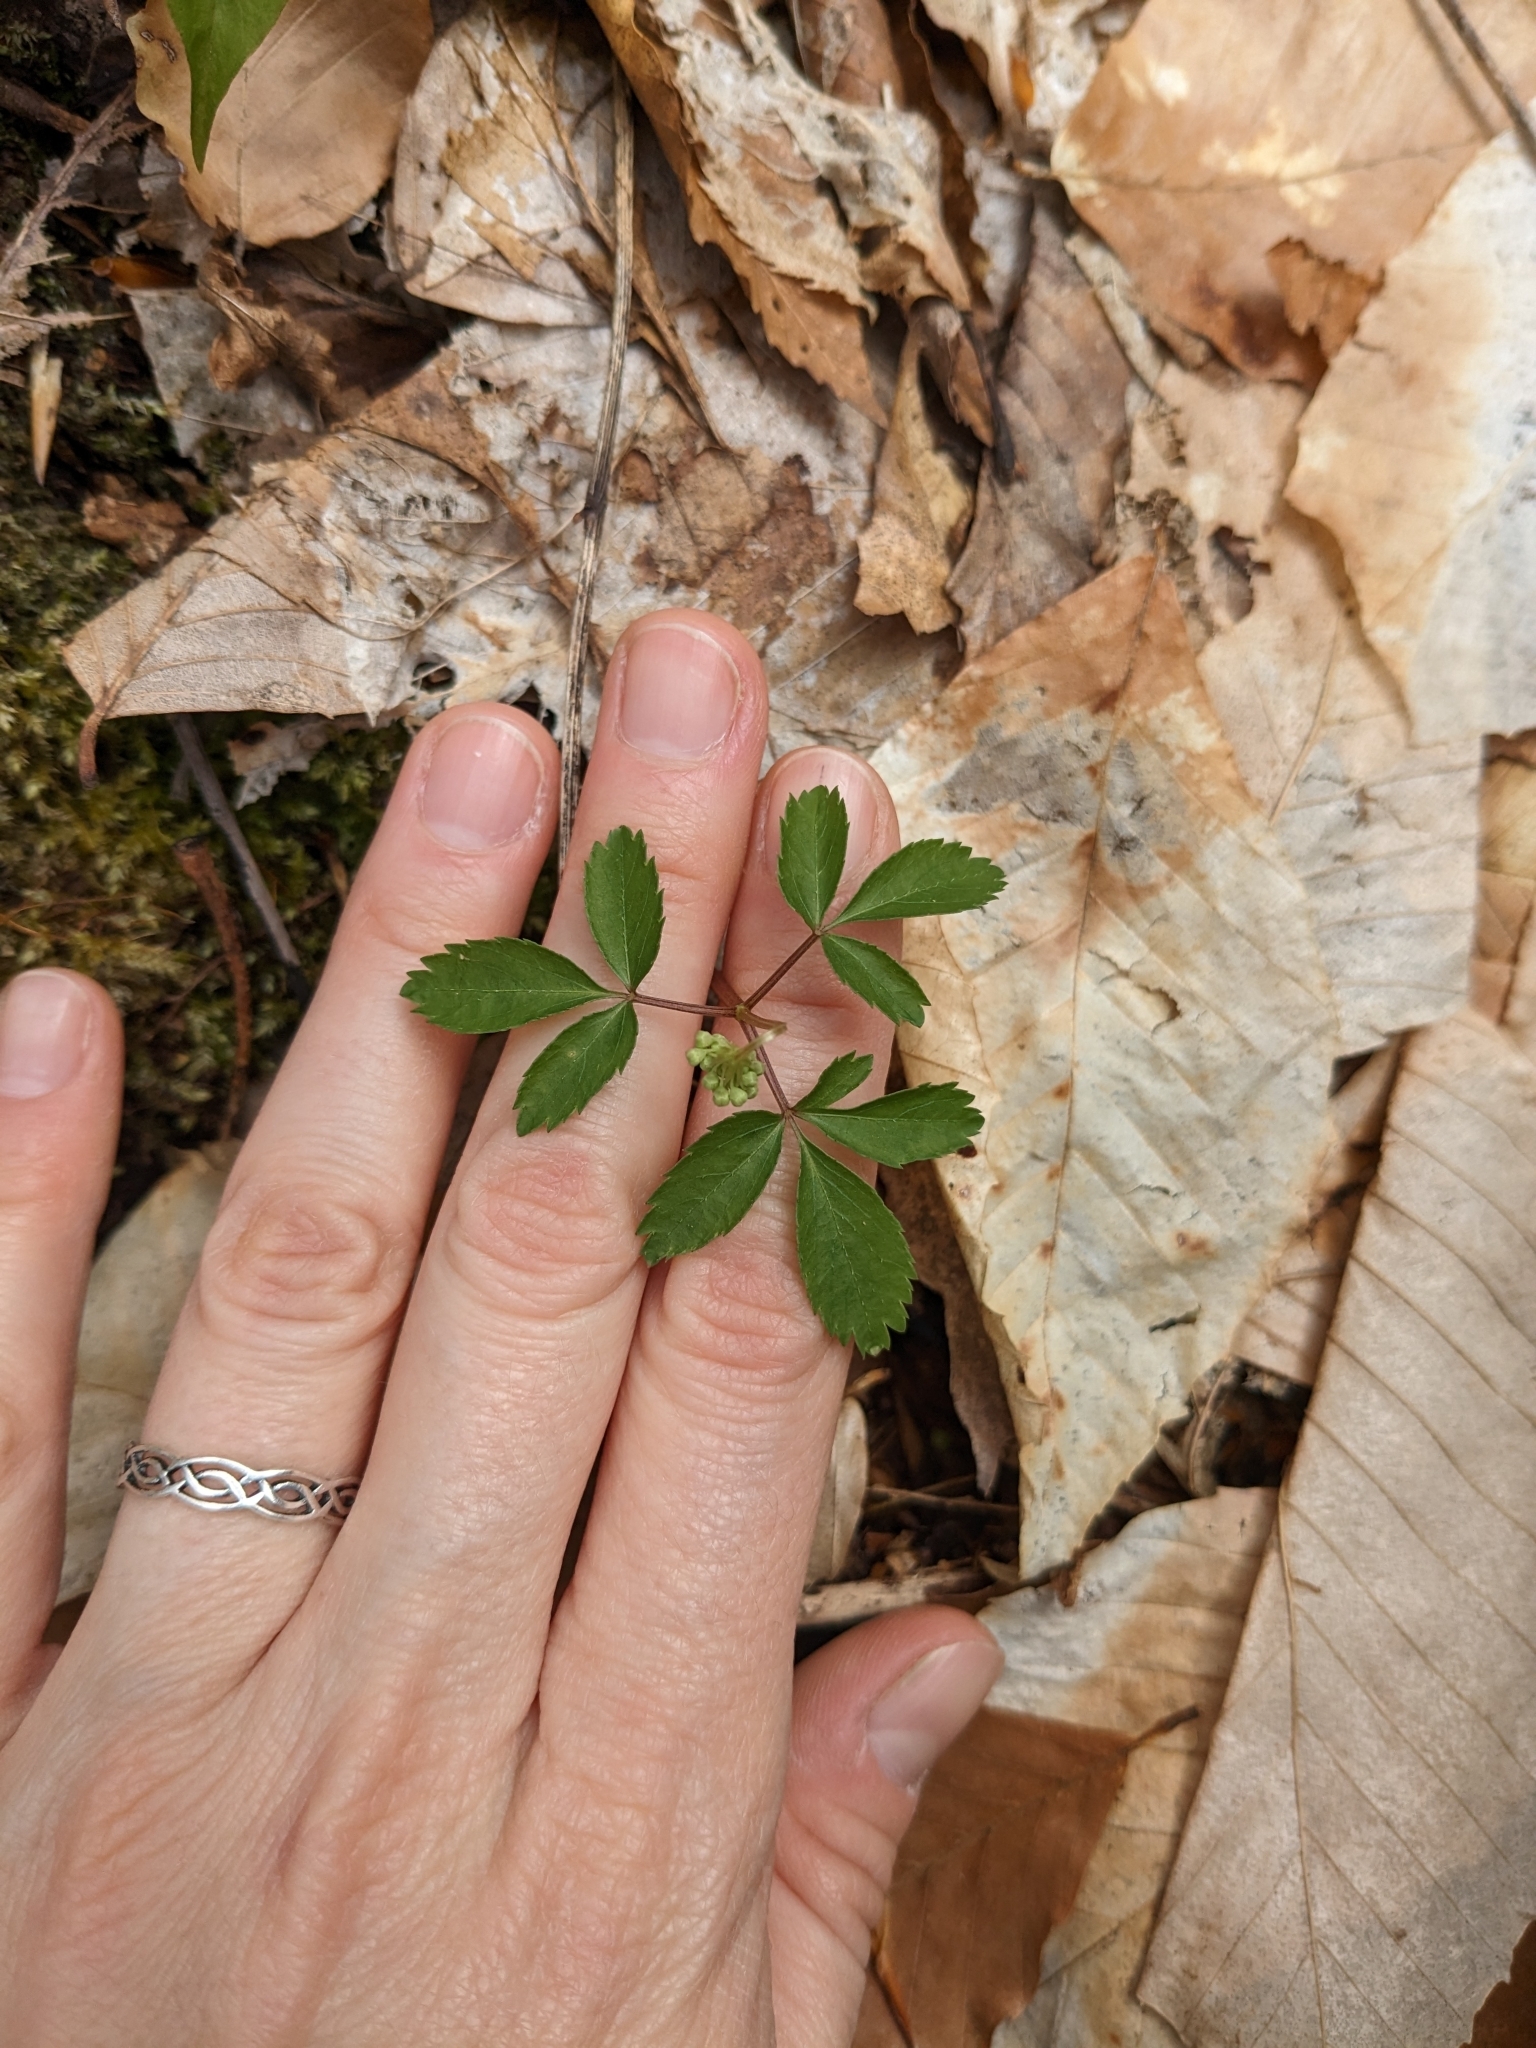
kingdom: Plantae
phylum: Tracheophyta
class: Magnoliopsida
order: Apiales
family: Araliaceae
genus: Panax
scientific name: Panax trifolius
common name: Dwarf ginseng
